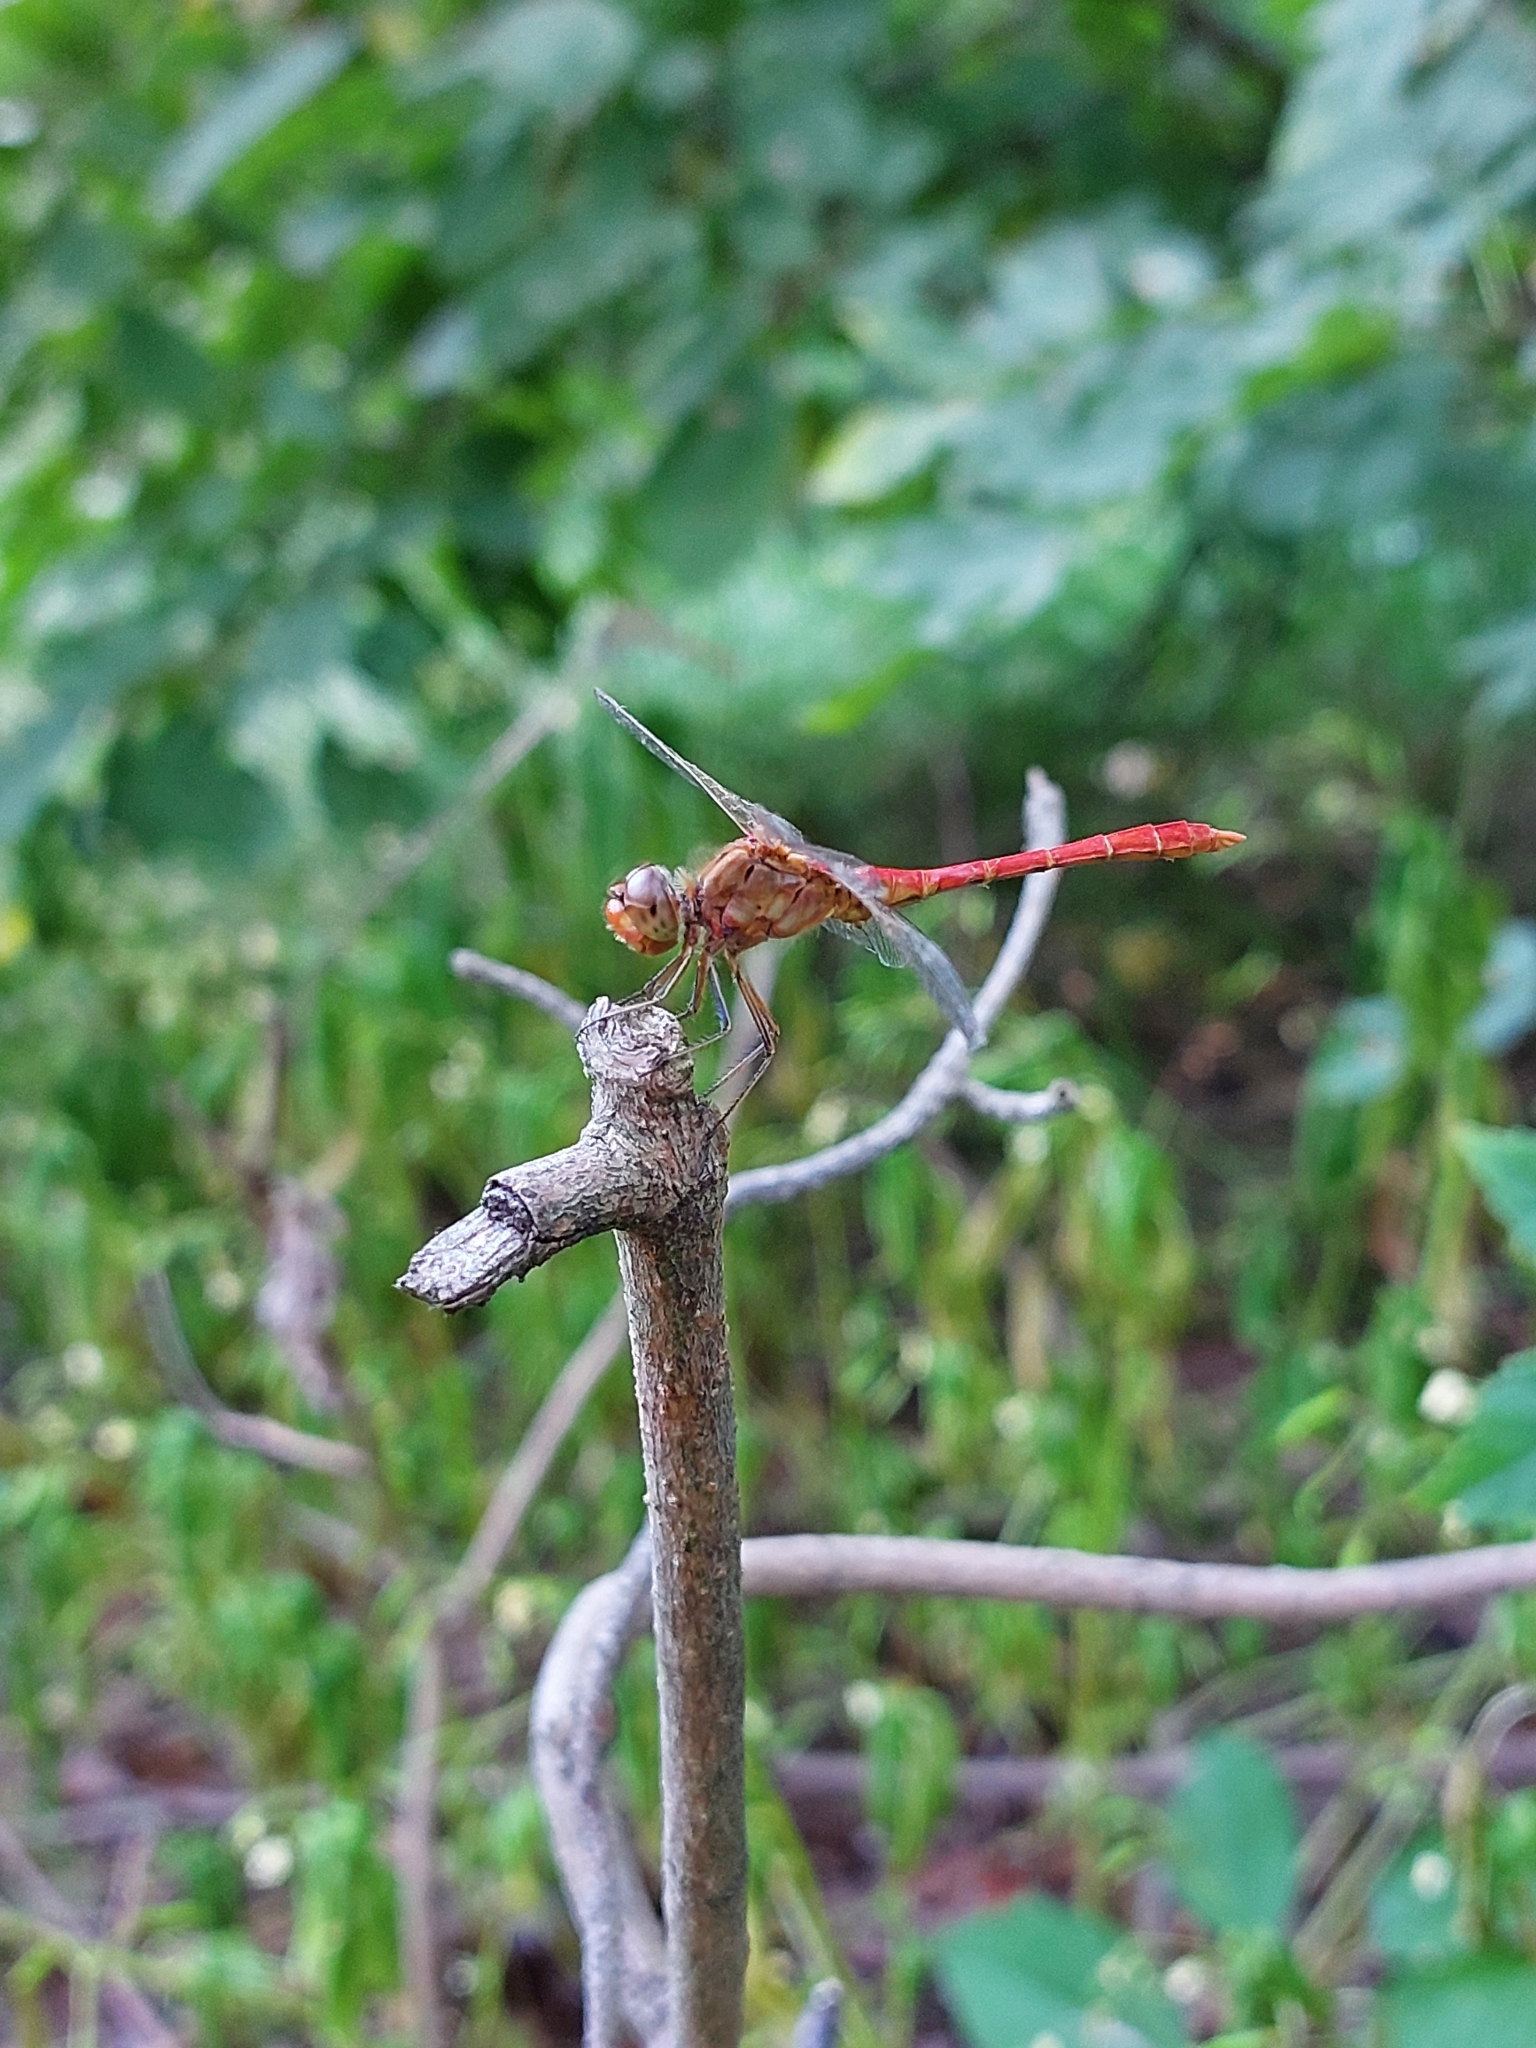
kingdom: Animalia
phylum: Arthropoda
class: Insecta
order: Odonata
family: Libellulidae
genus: Sympetrum
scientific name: Sympetrum meridionale
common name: Southern darter
